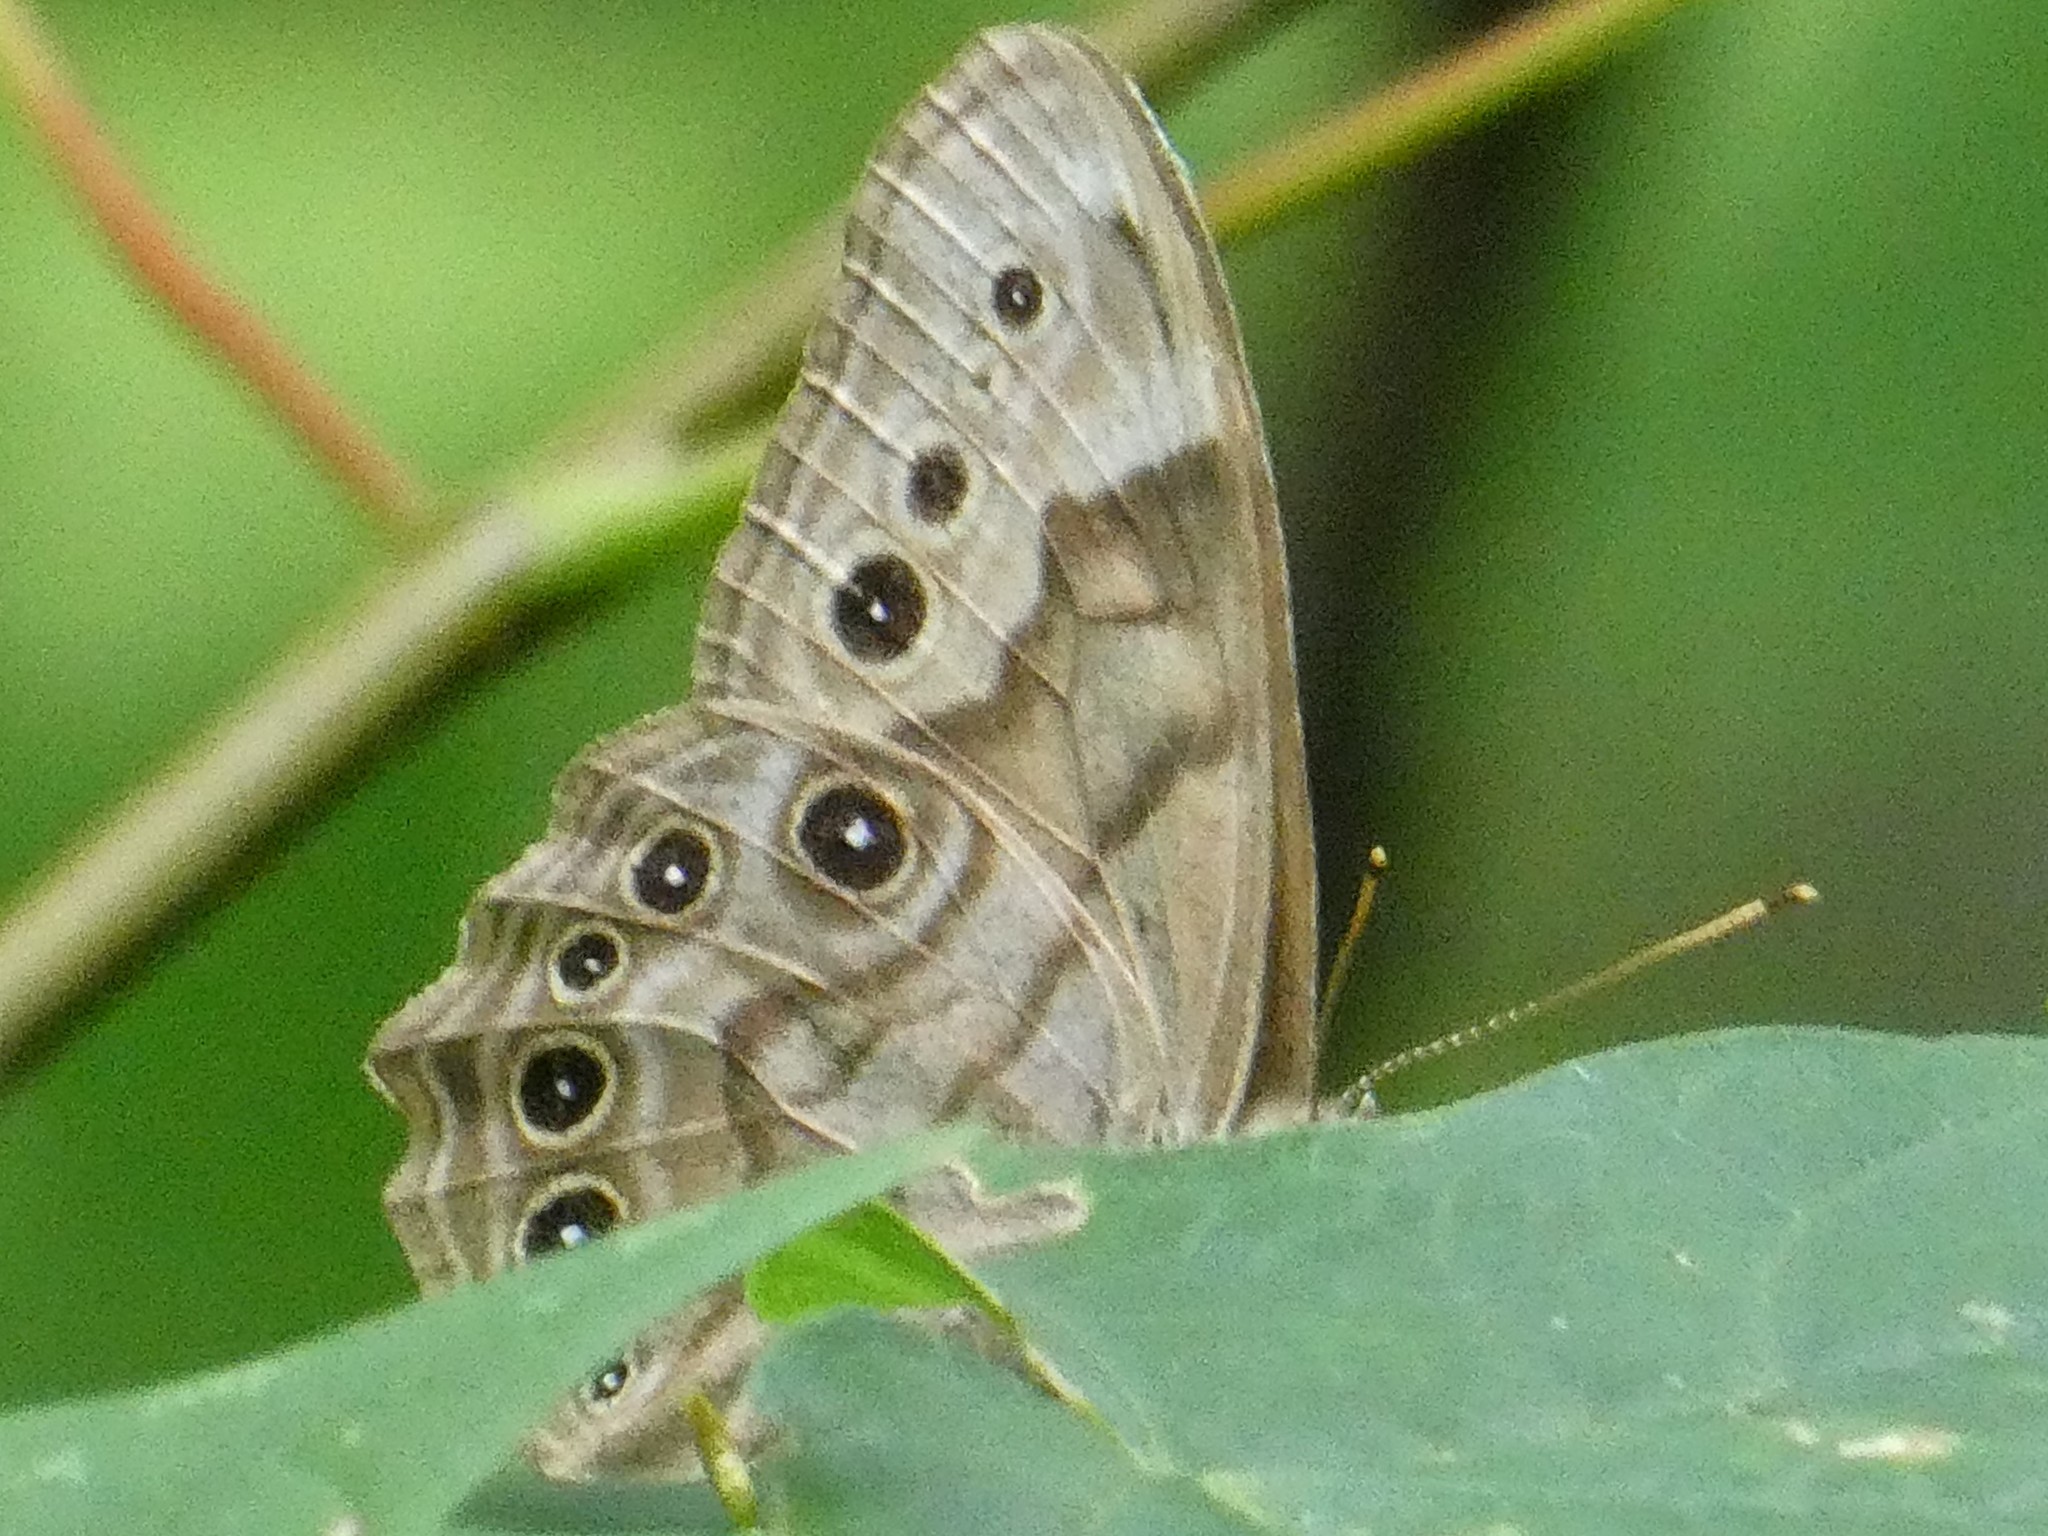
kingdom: Animalia
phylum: Arthropoda
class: Insecta
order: Lepidoptera
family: Nymphalidae
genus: Lethe
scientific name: Lethe anthedon
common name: Northern pearly-eye
